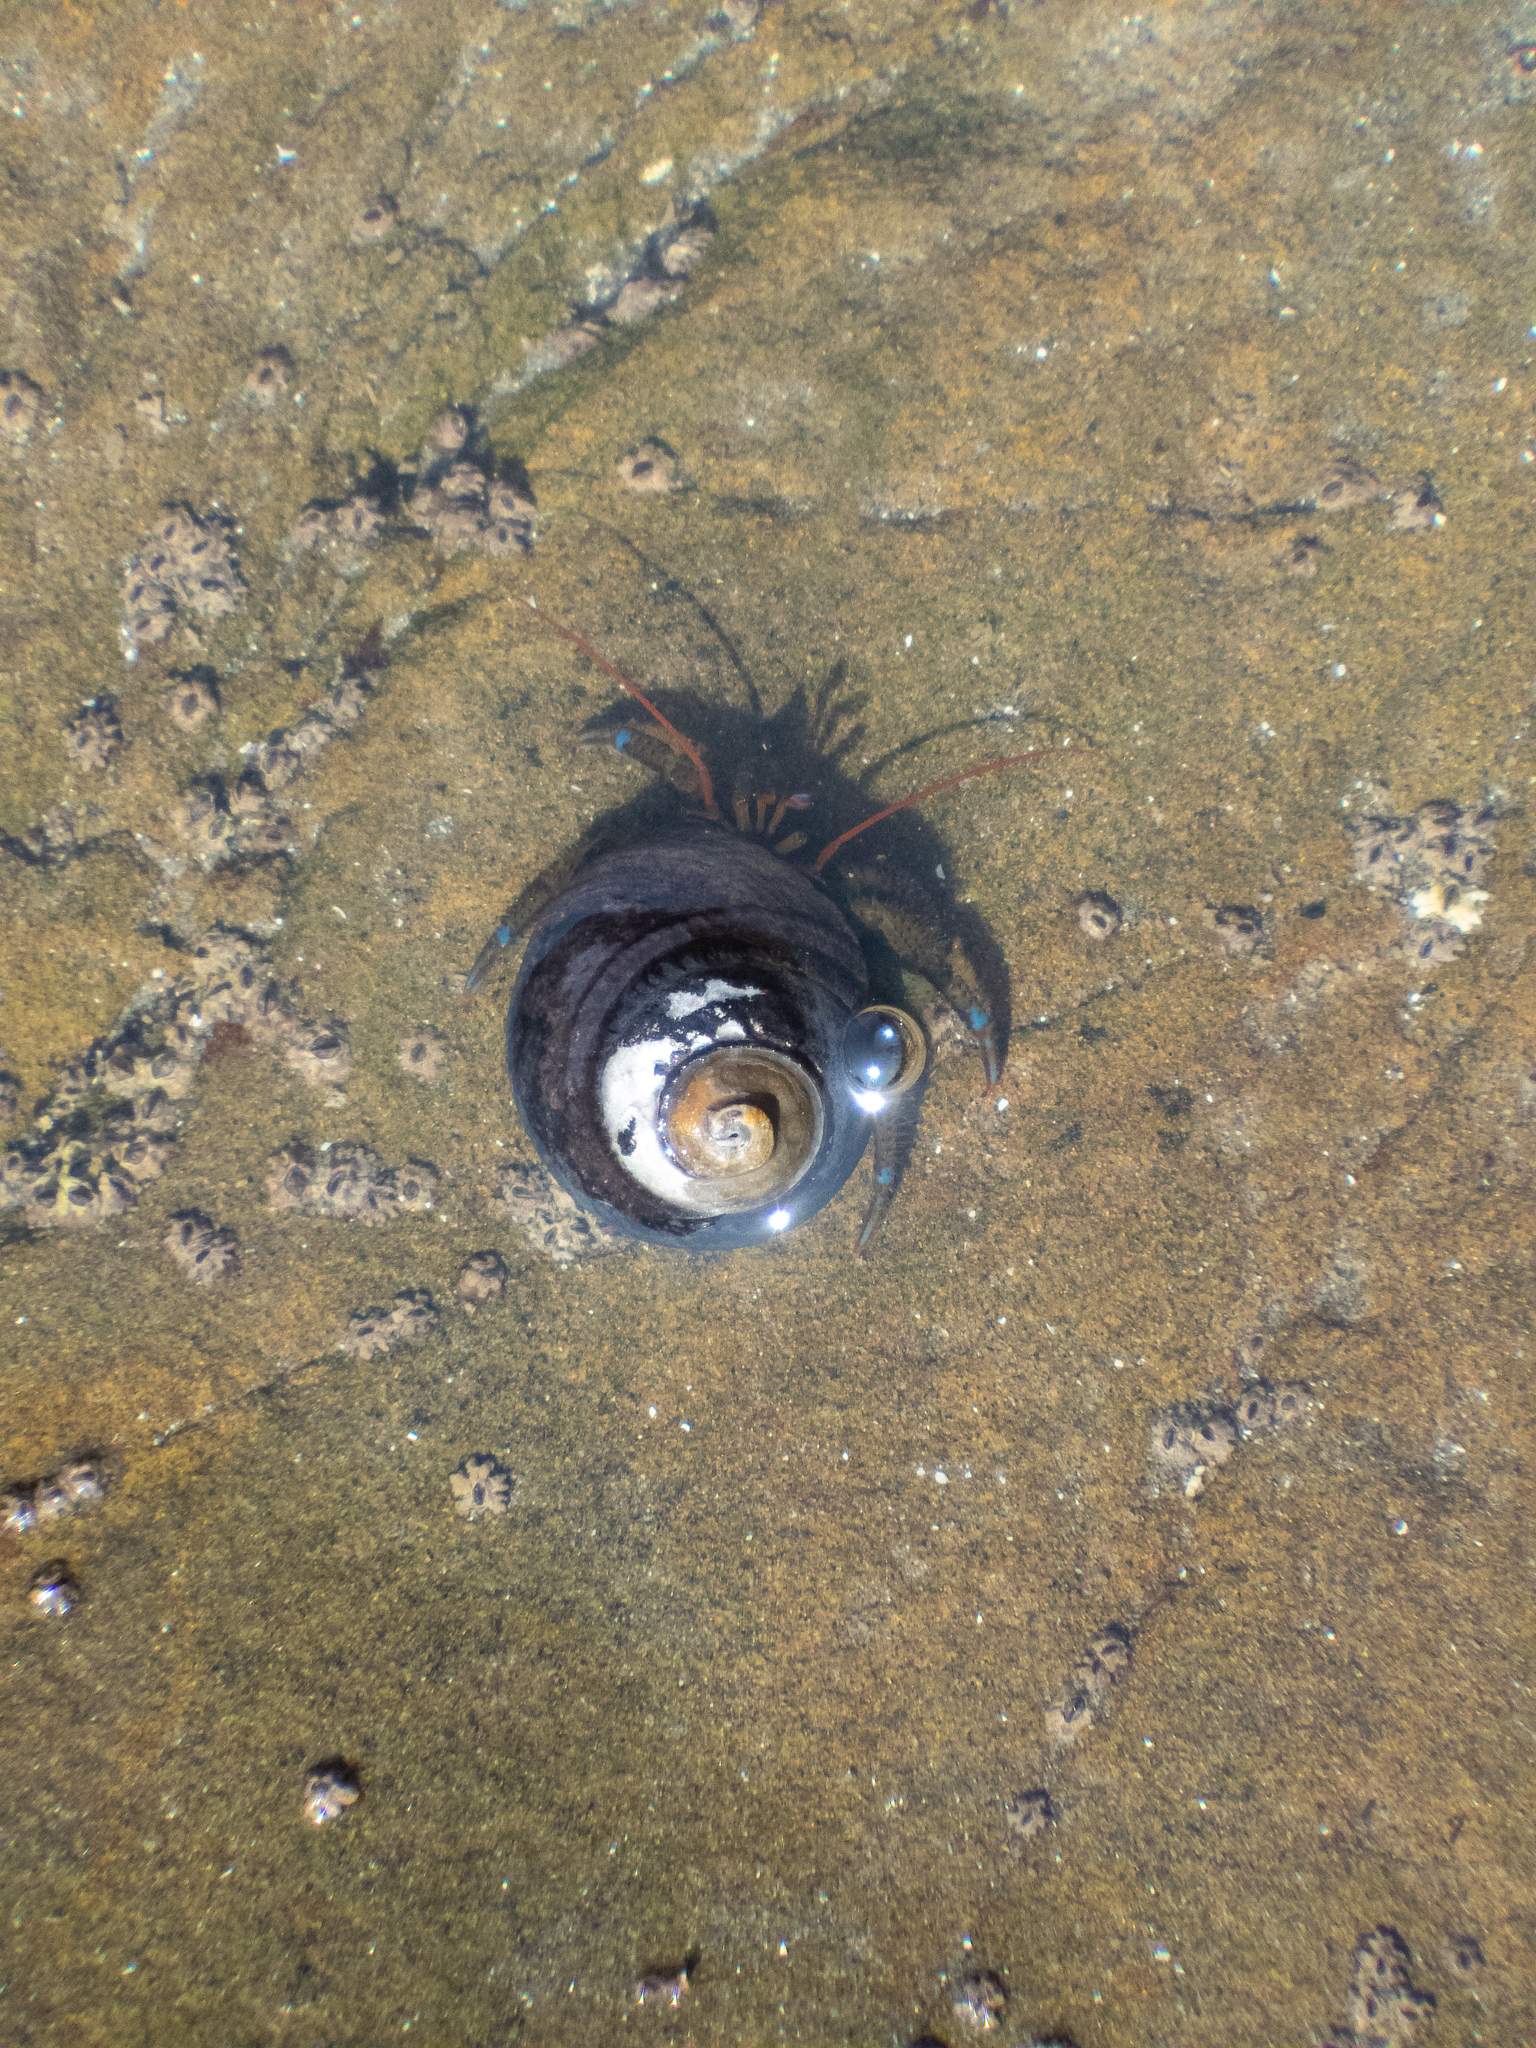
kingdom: Animalia
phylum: Arthropoda
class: Malacostraca
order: Decapoda
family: Paguridae
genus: Pagurus
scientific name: Pagurus samuelis
